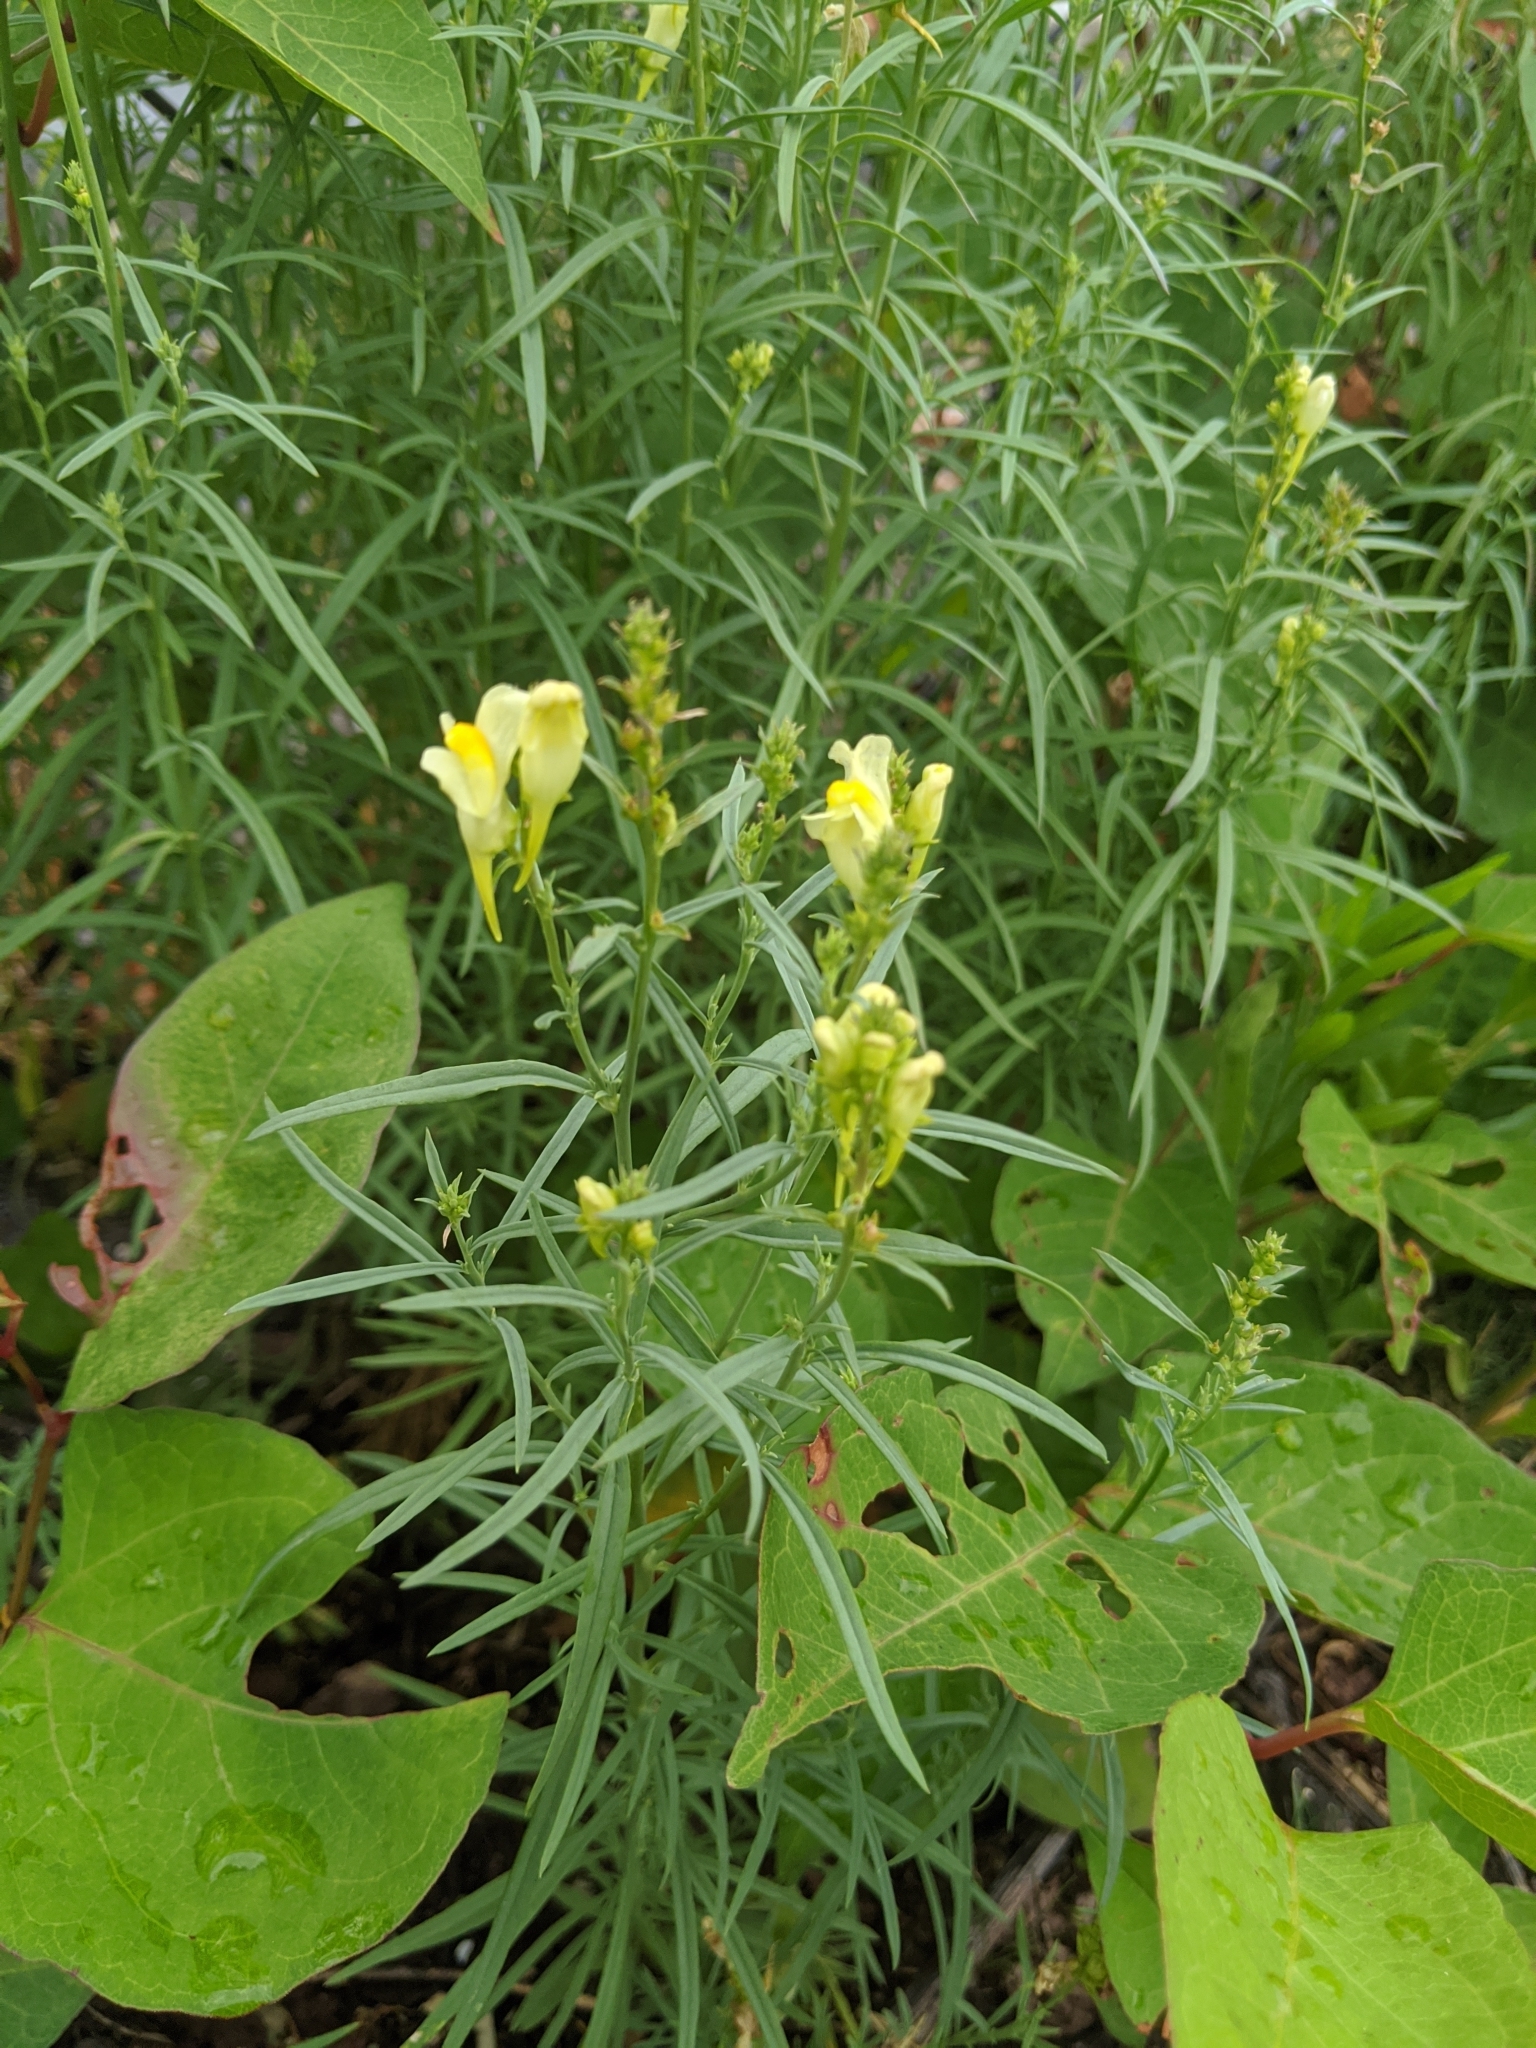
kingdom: Plantae
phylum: Tracheophyta
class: Magnoliopsida
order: Lamiales
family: Plantaginaceae
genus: Linaria
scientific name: Linaria vulgaris
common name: Butter and eggs
